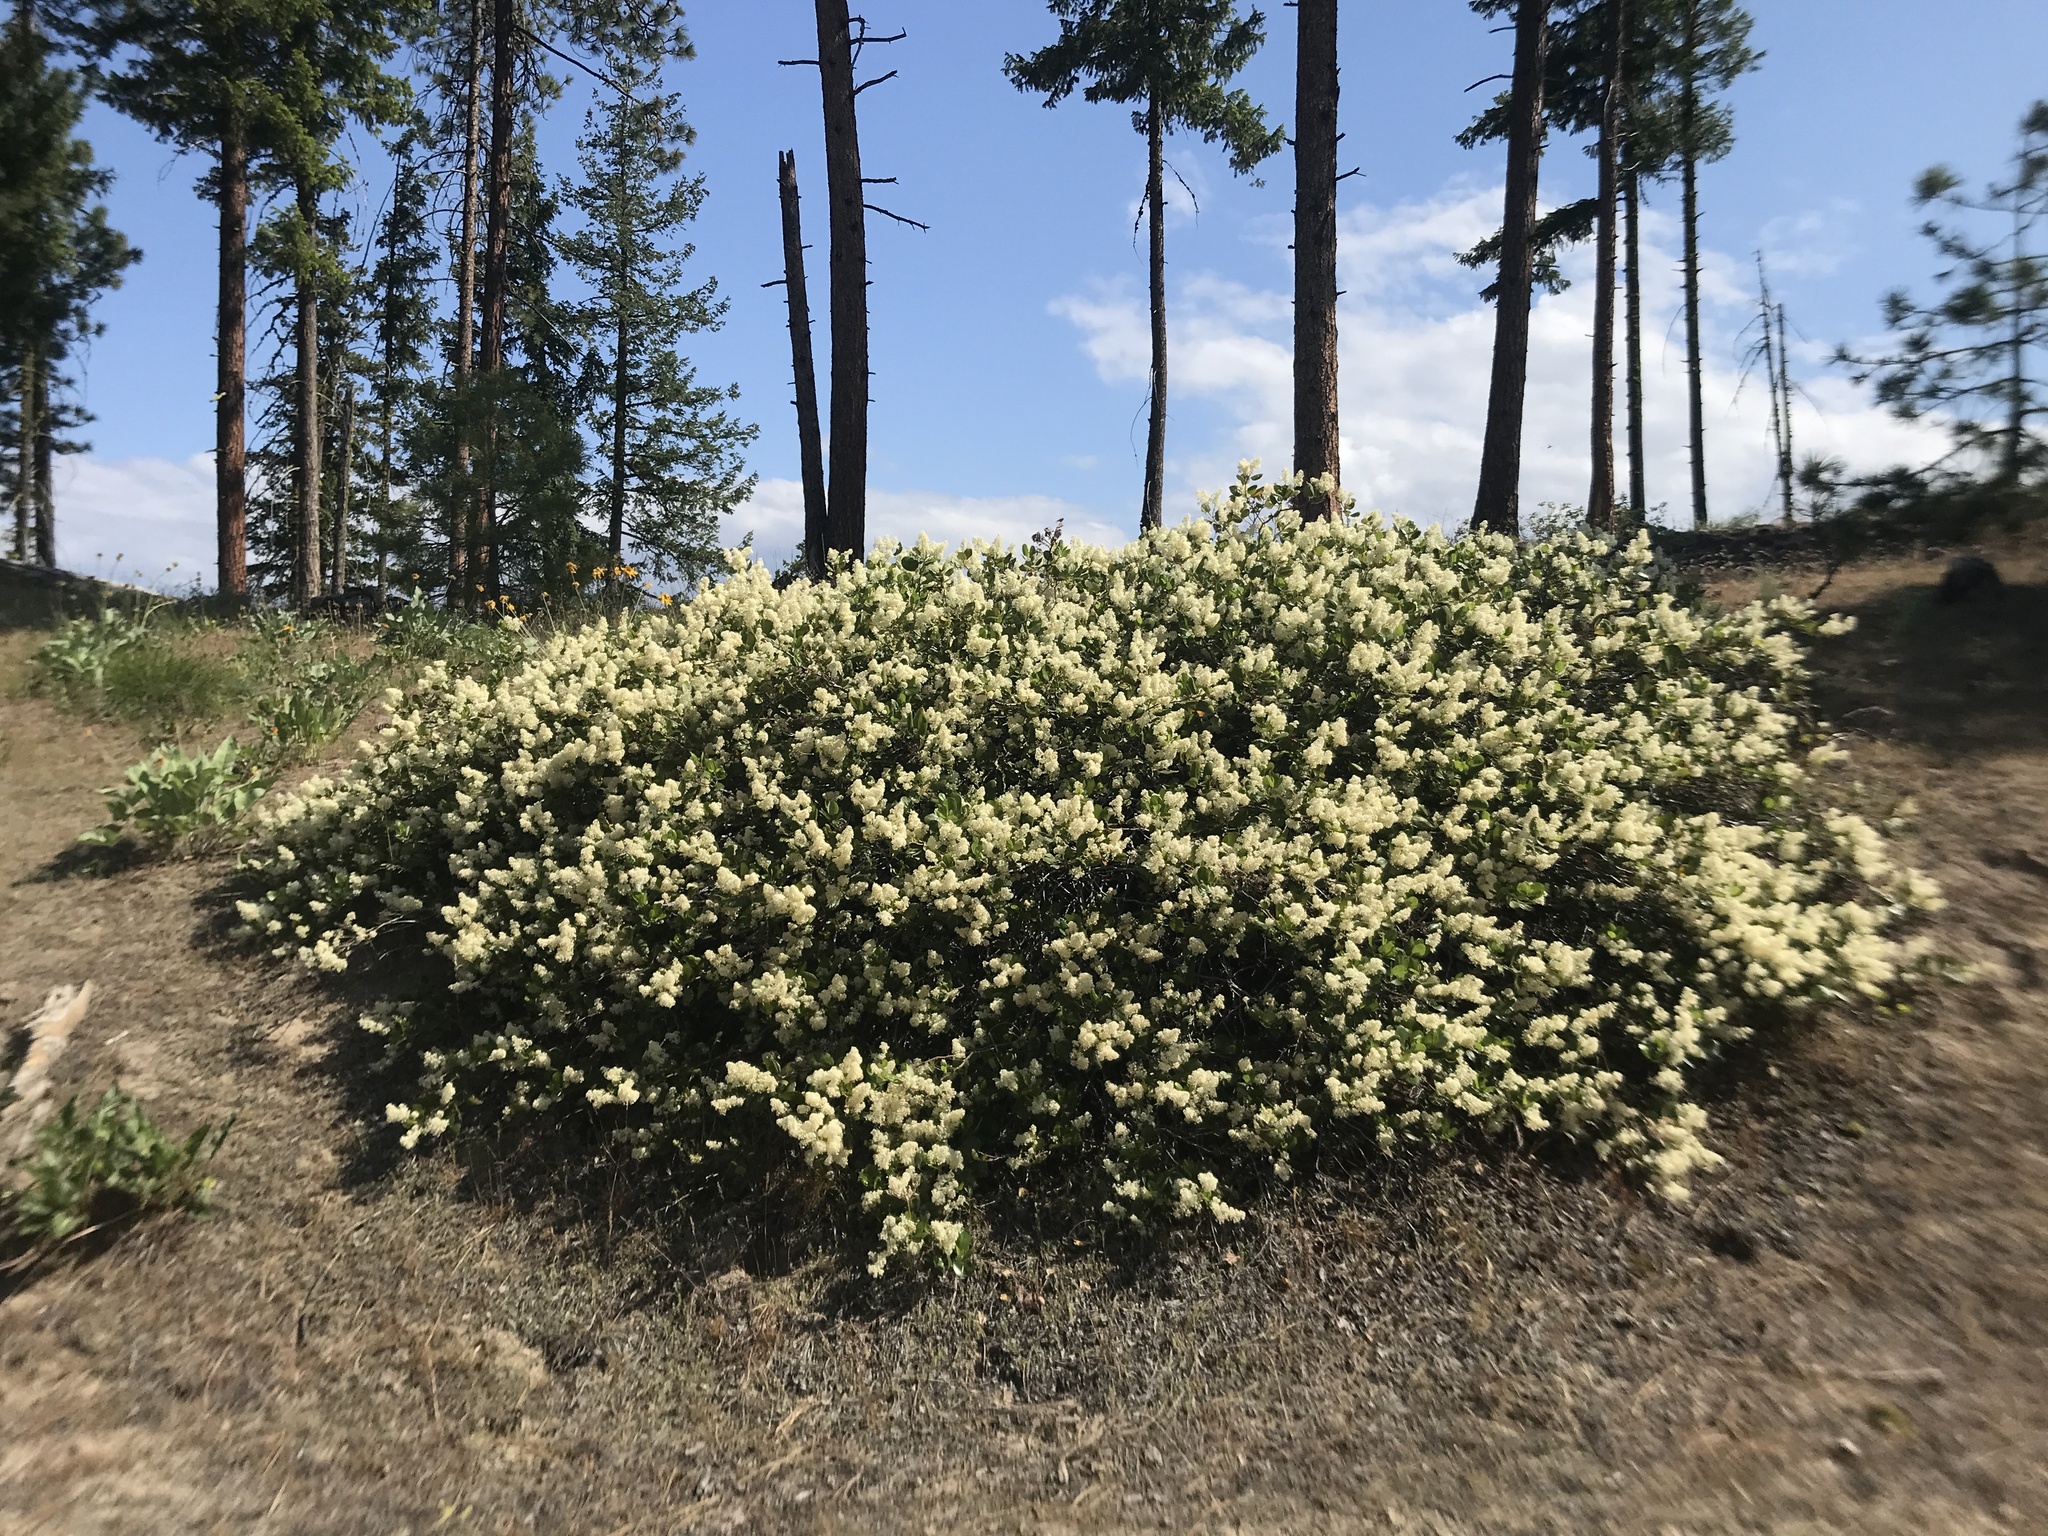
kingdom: Plantae
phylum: Tracheophyta
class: Magnoliopsida
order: Rosales
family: Rhamnaceae
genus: Ceanothus
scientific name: Ceanothus velutinus
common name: Snowbrush
